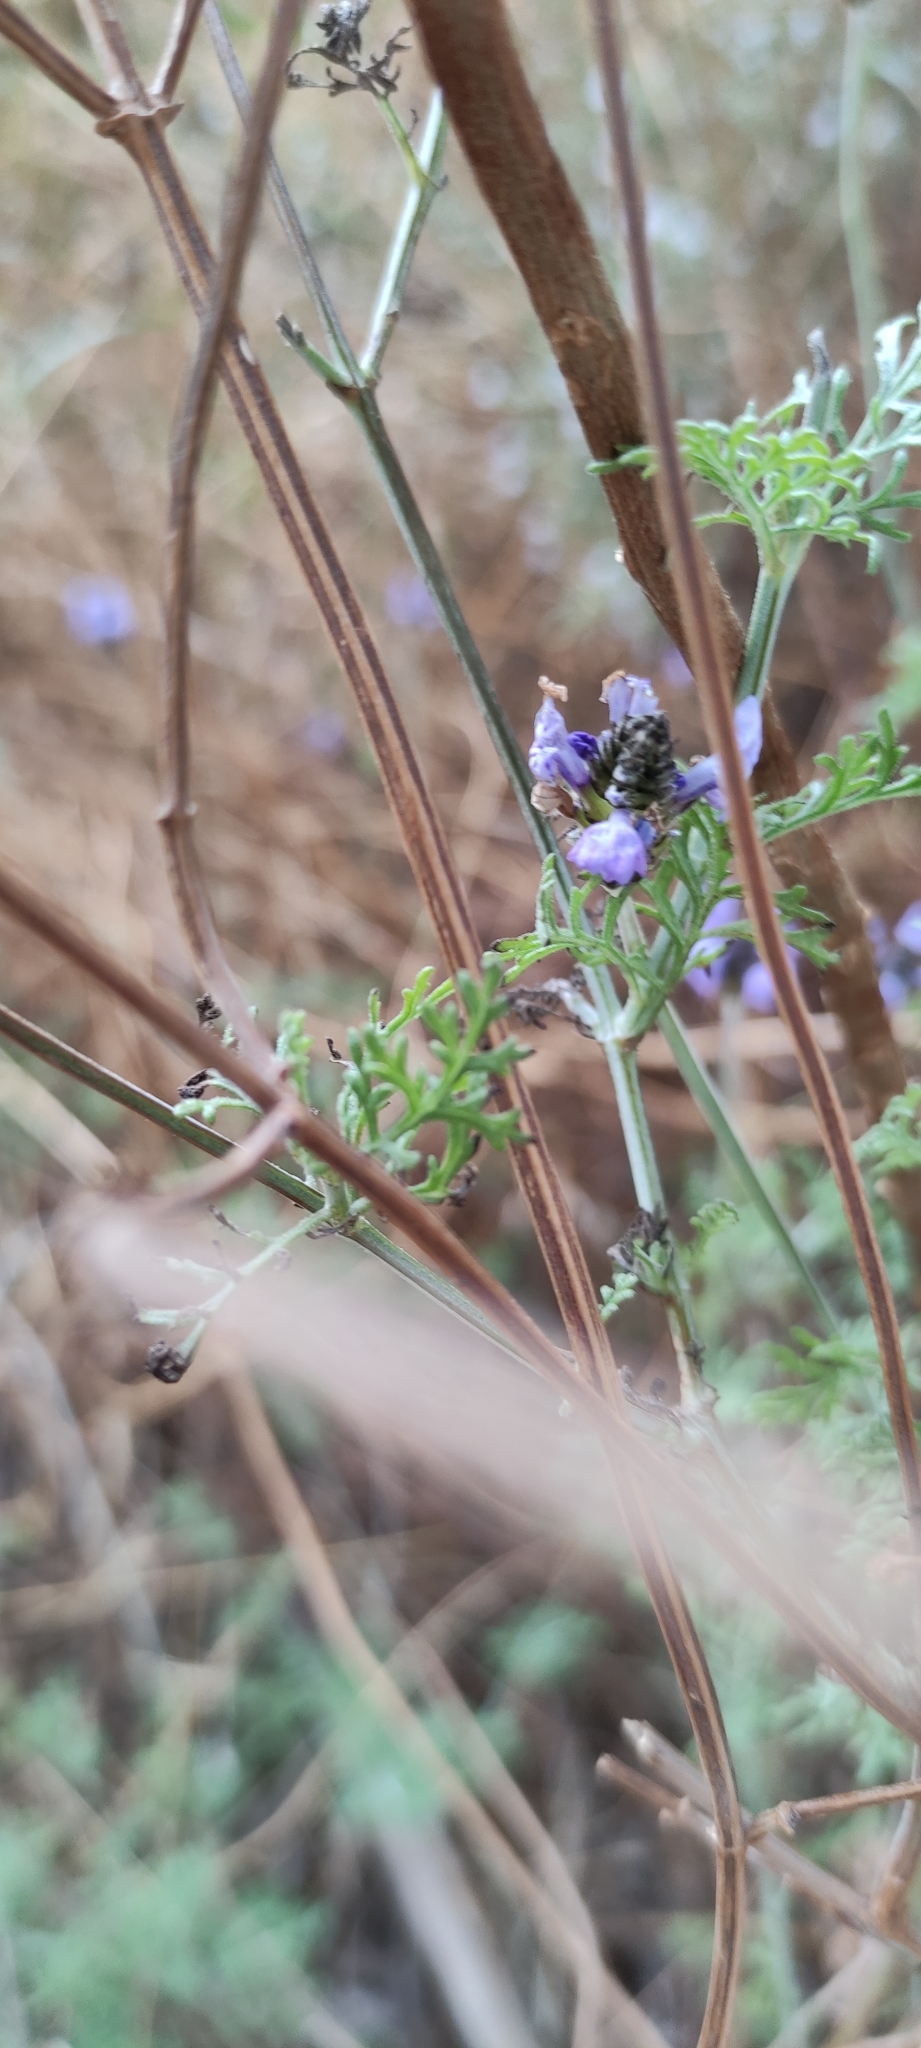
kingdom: Plantae
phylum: Tracheophyta
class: Magnoliopsida
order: Lamiales
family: Lamiaceae
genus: Lavandula
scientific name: Lavandula multifida
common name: Fern-leaf lavender
